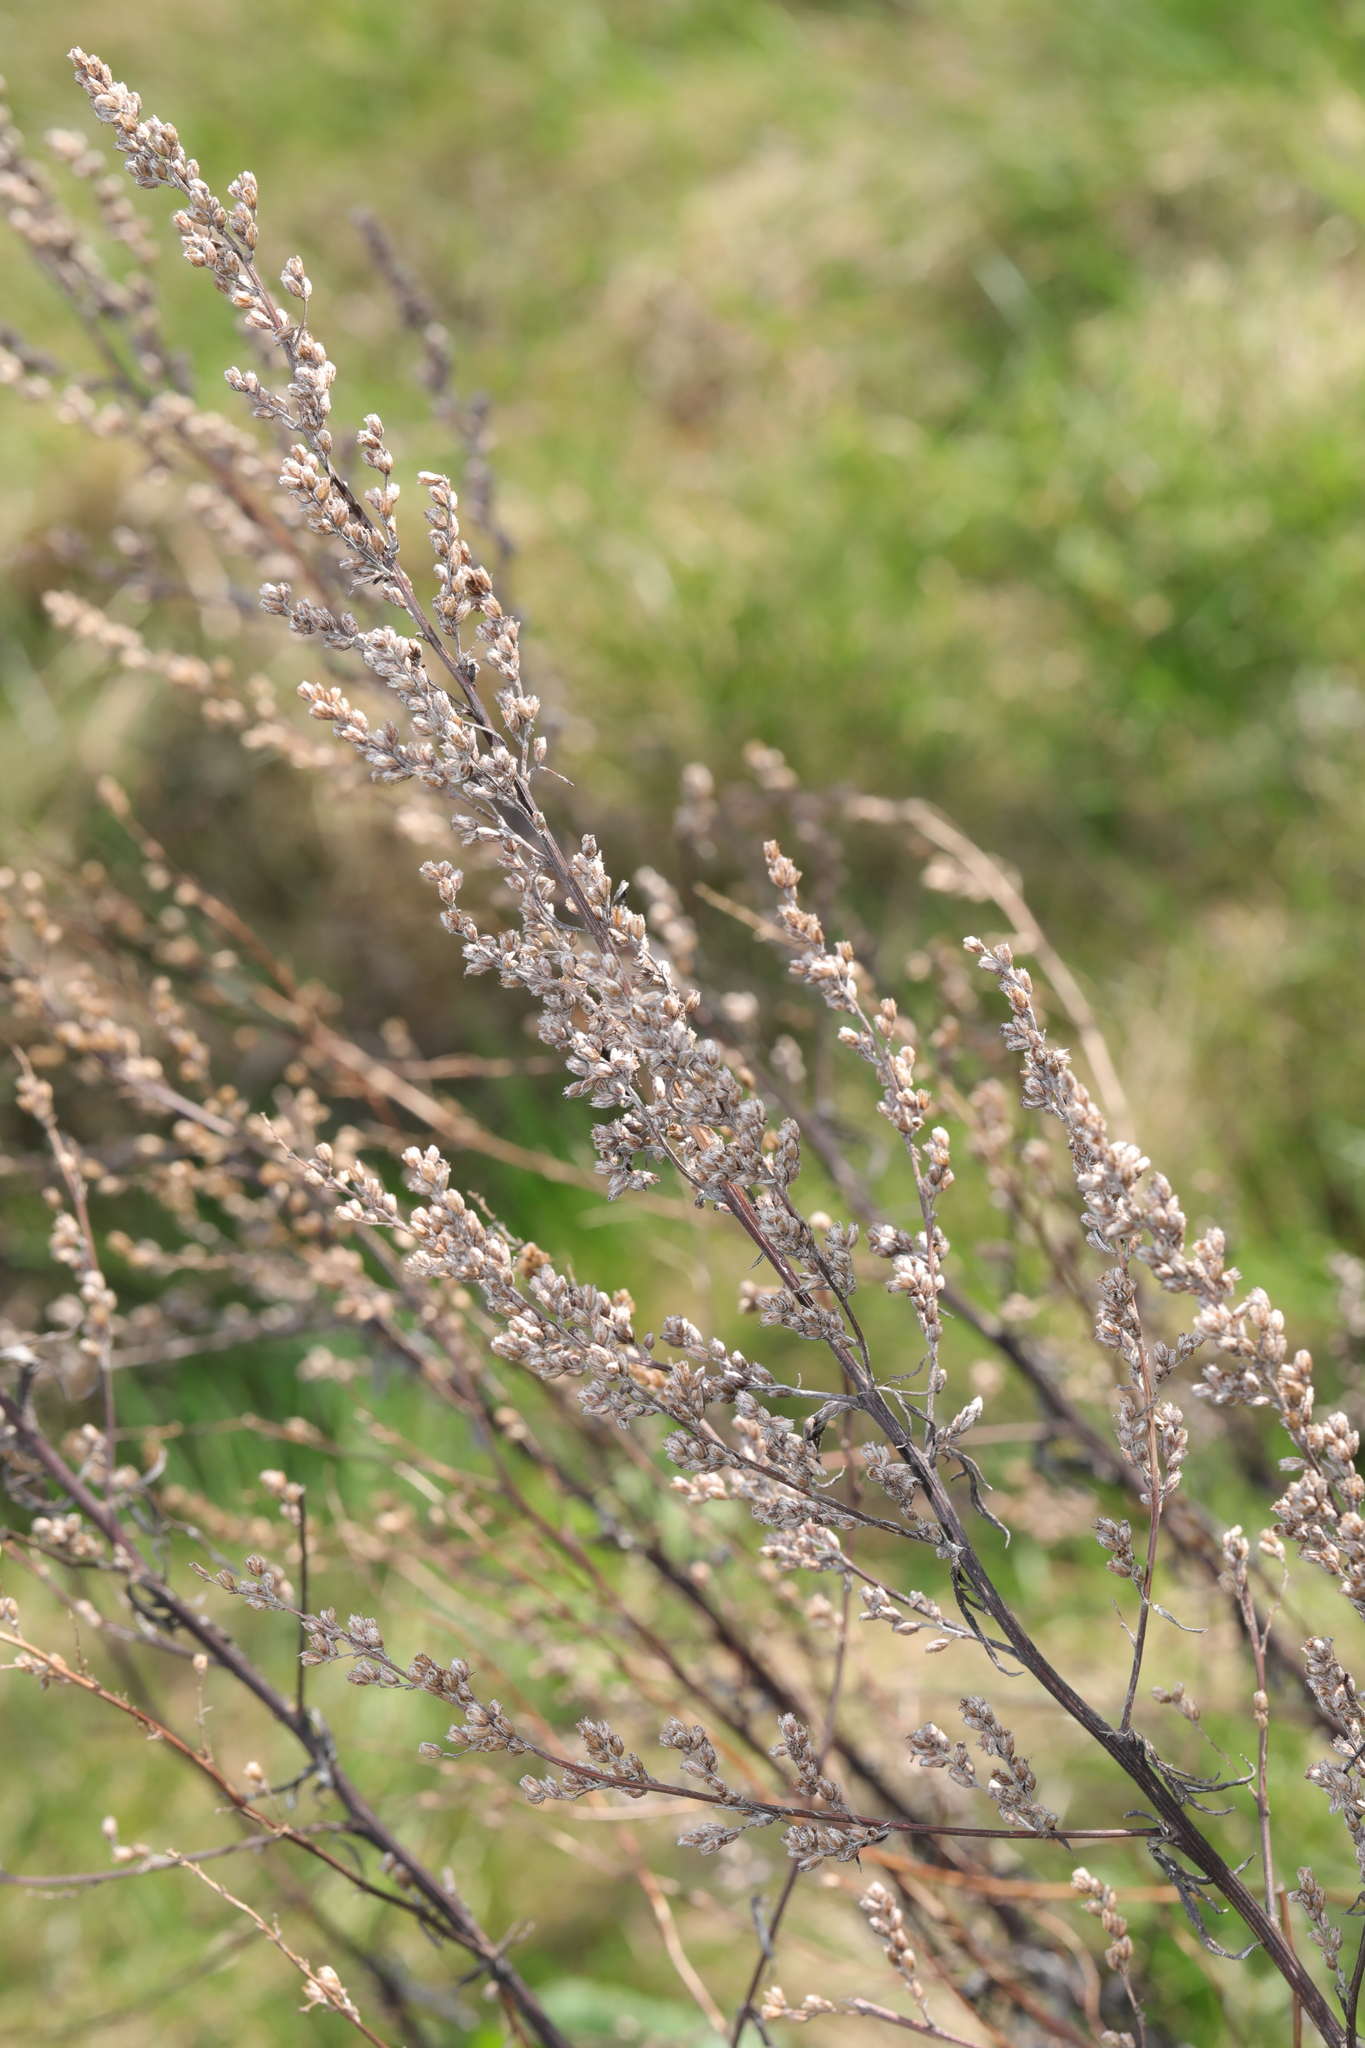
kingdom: Plantae
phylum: Tracheophyta
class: Magnoliopsida
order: Asterales
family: Asteraceae
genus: Artemisia
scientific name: Artemisia vulgaris
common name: Mugwort
